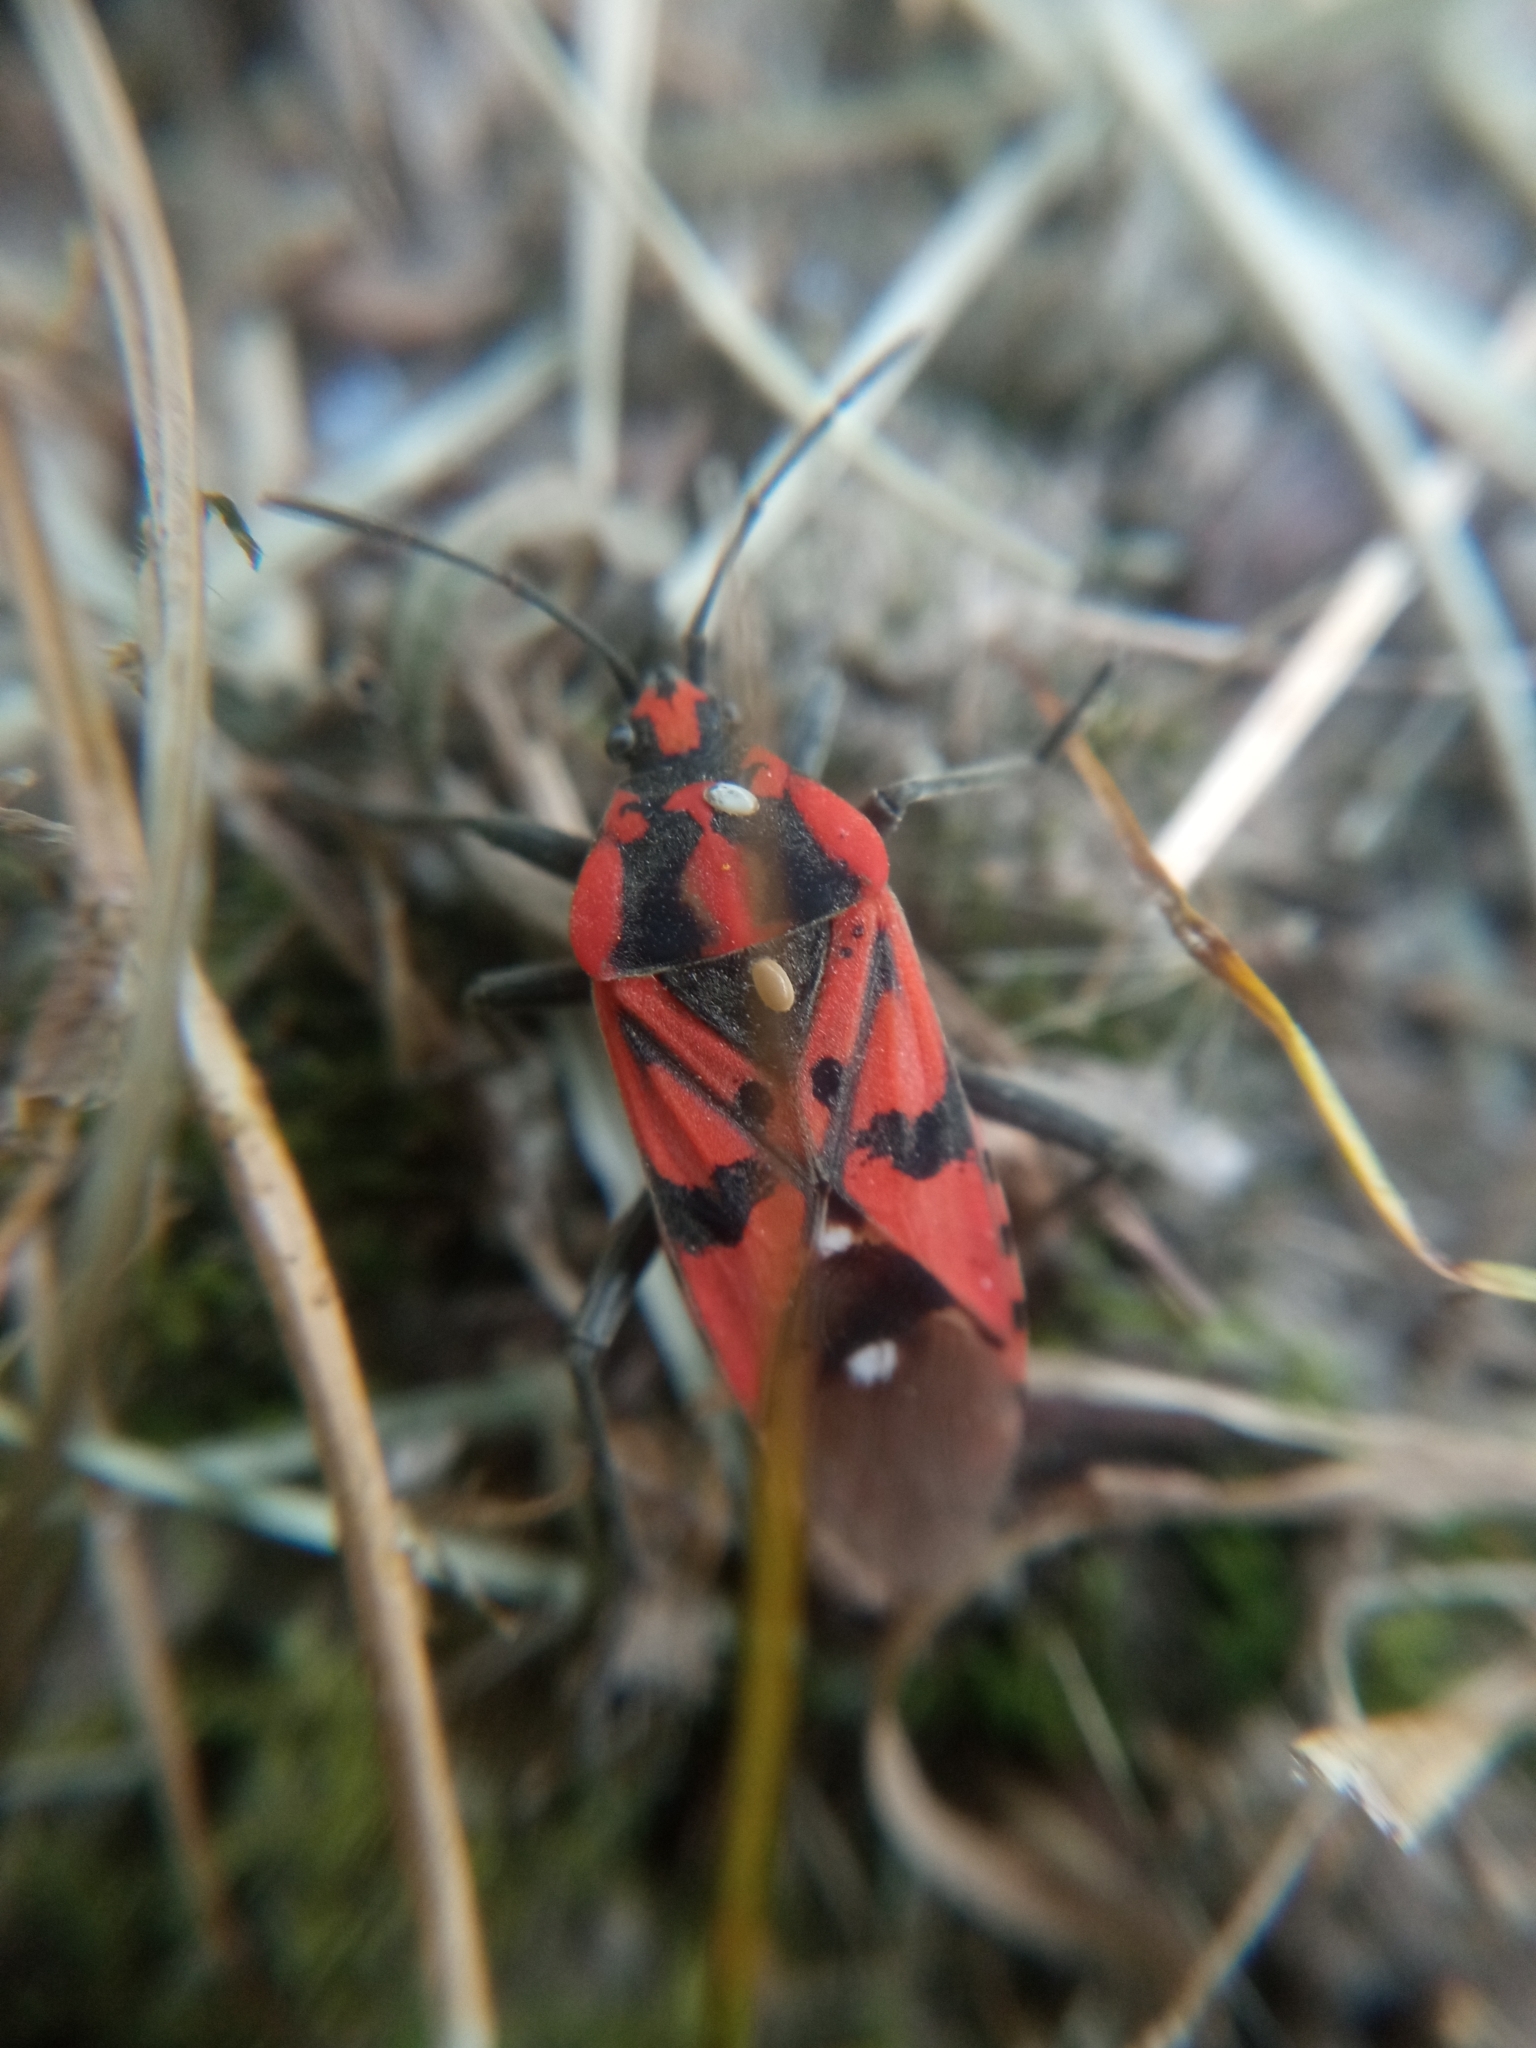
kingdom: Animalia
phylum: Arthropoda
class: Insecta
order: Hemiptera
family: Lygaeidae
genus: Spilostethus
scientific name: Spilostethus pandurus
